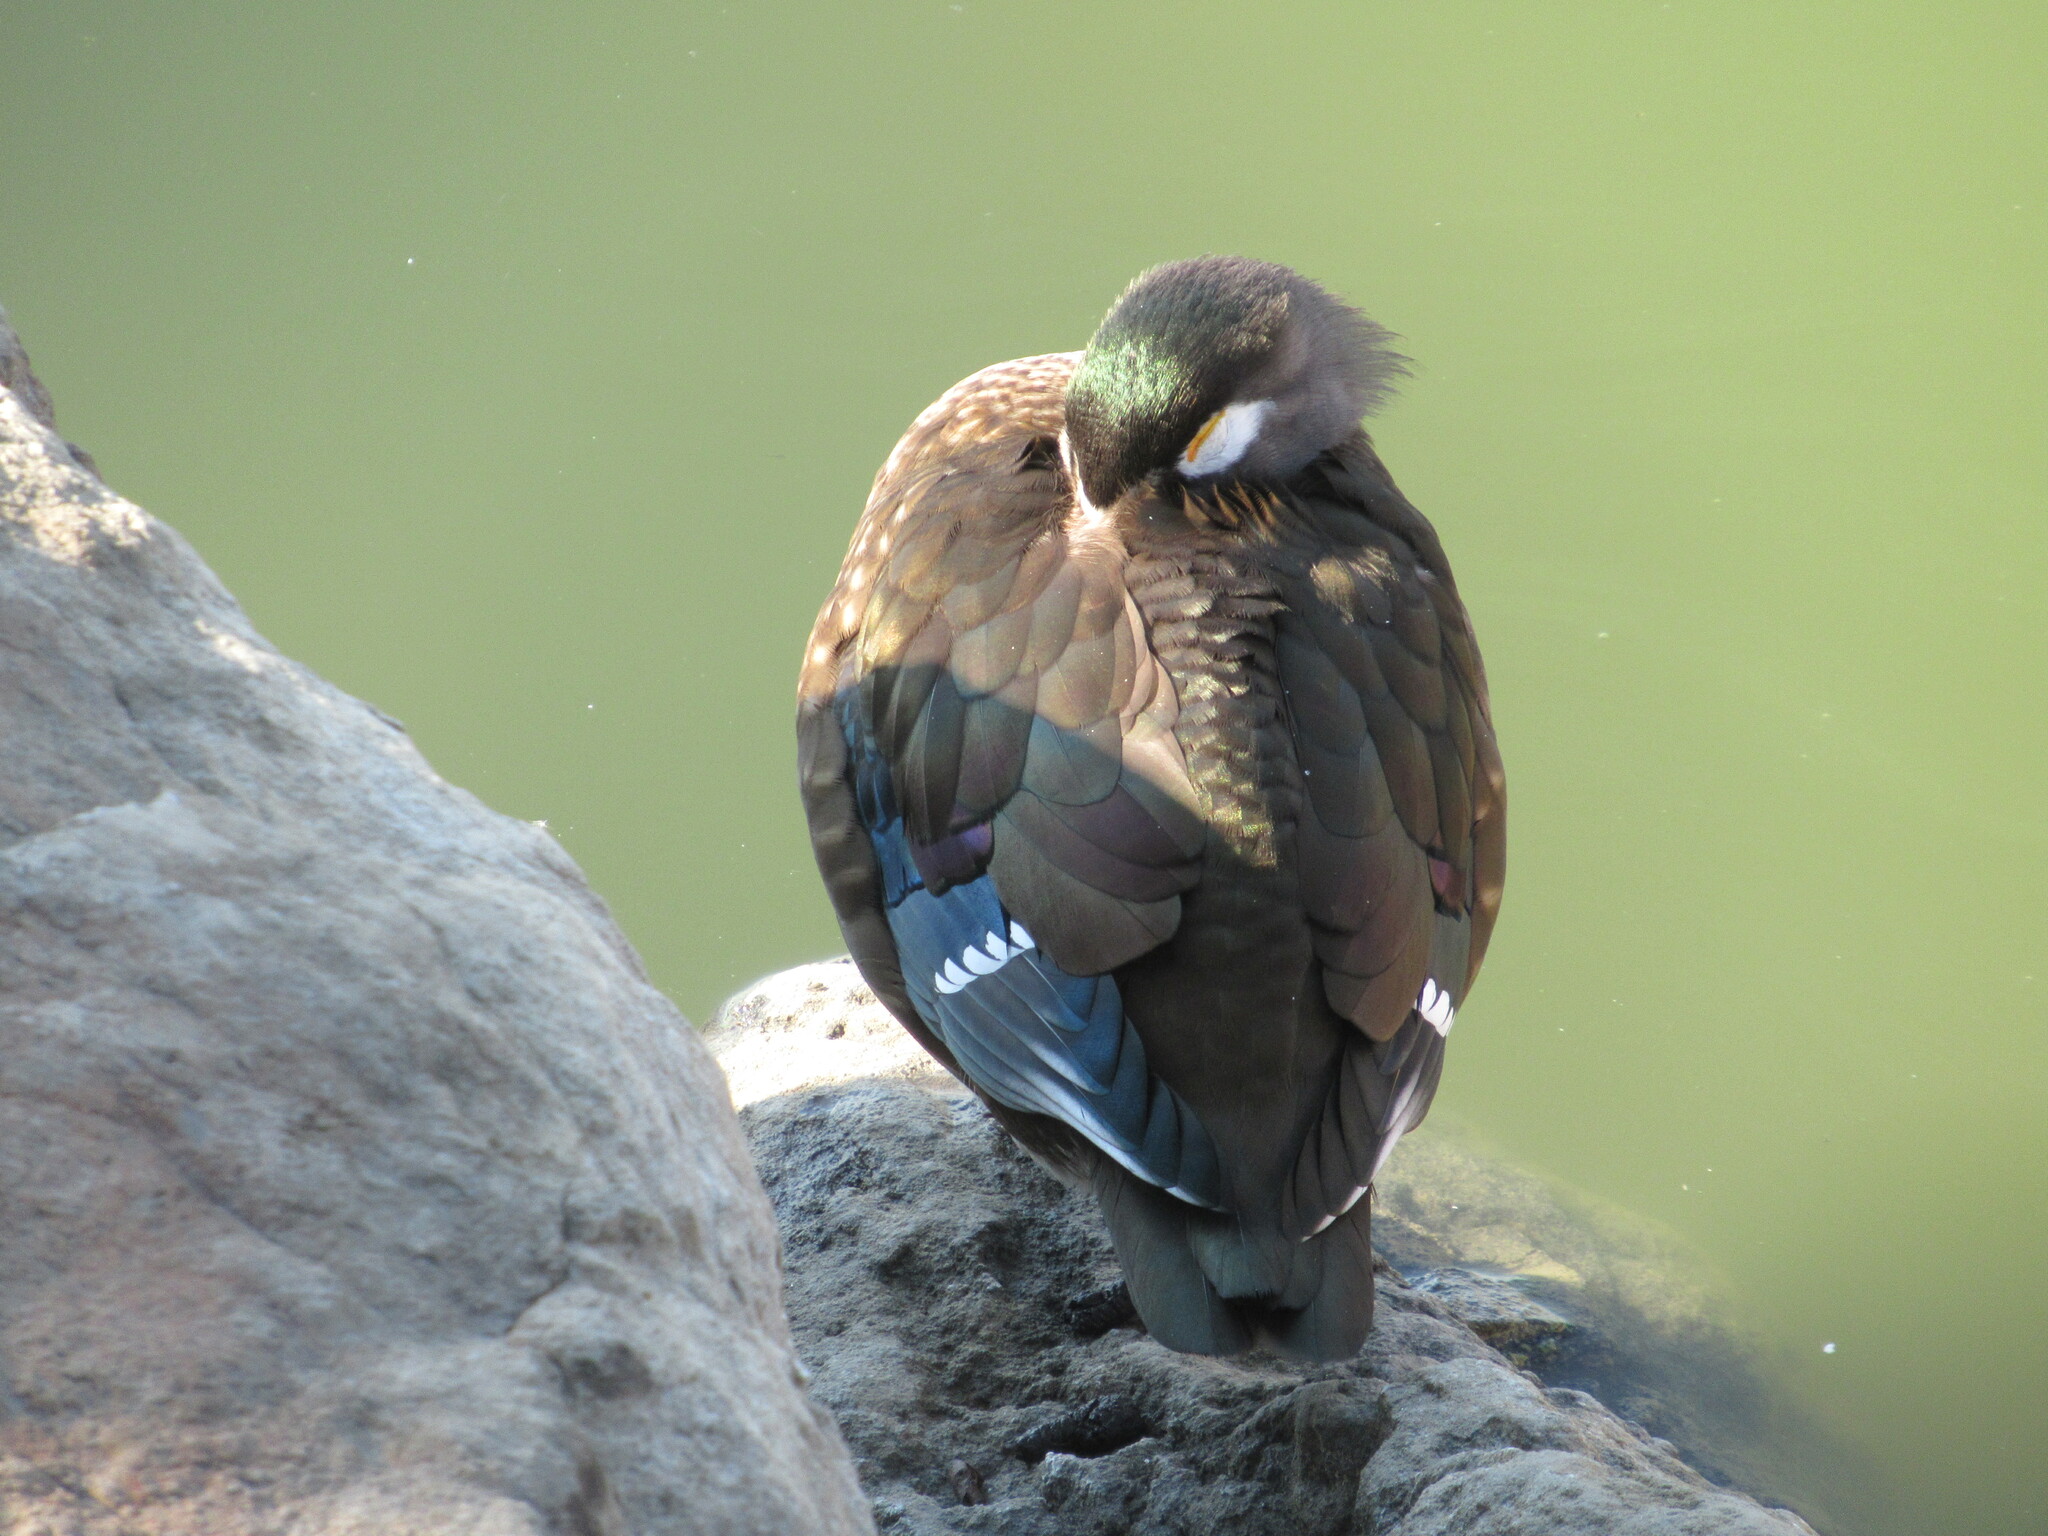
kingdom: Animalia
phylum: Chordata
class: Aves
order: Anseriformes
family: Anatidae
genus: Aix
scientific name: Aix sponsa
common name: Wood duck
